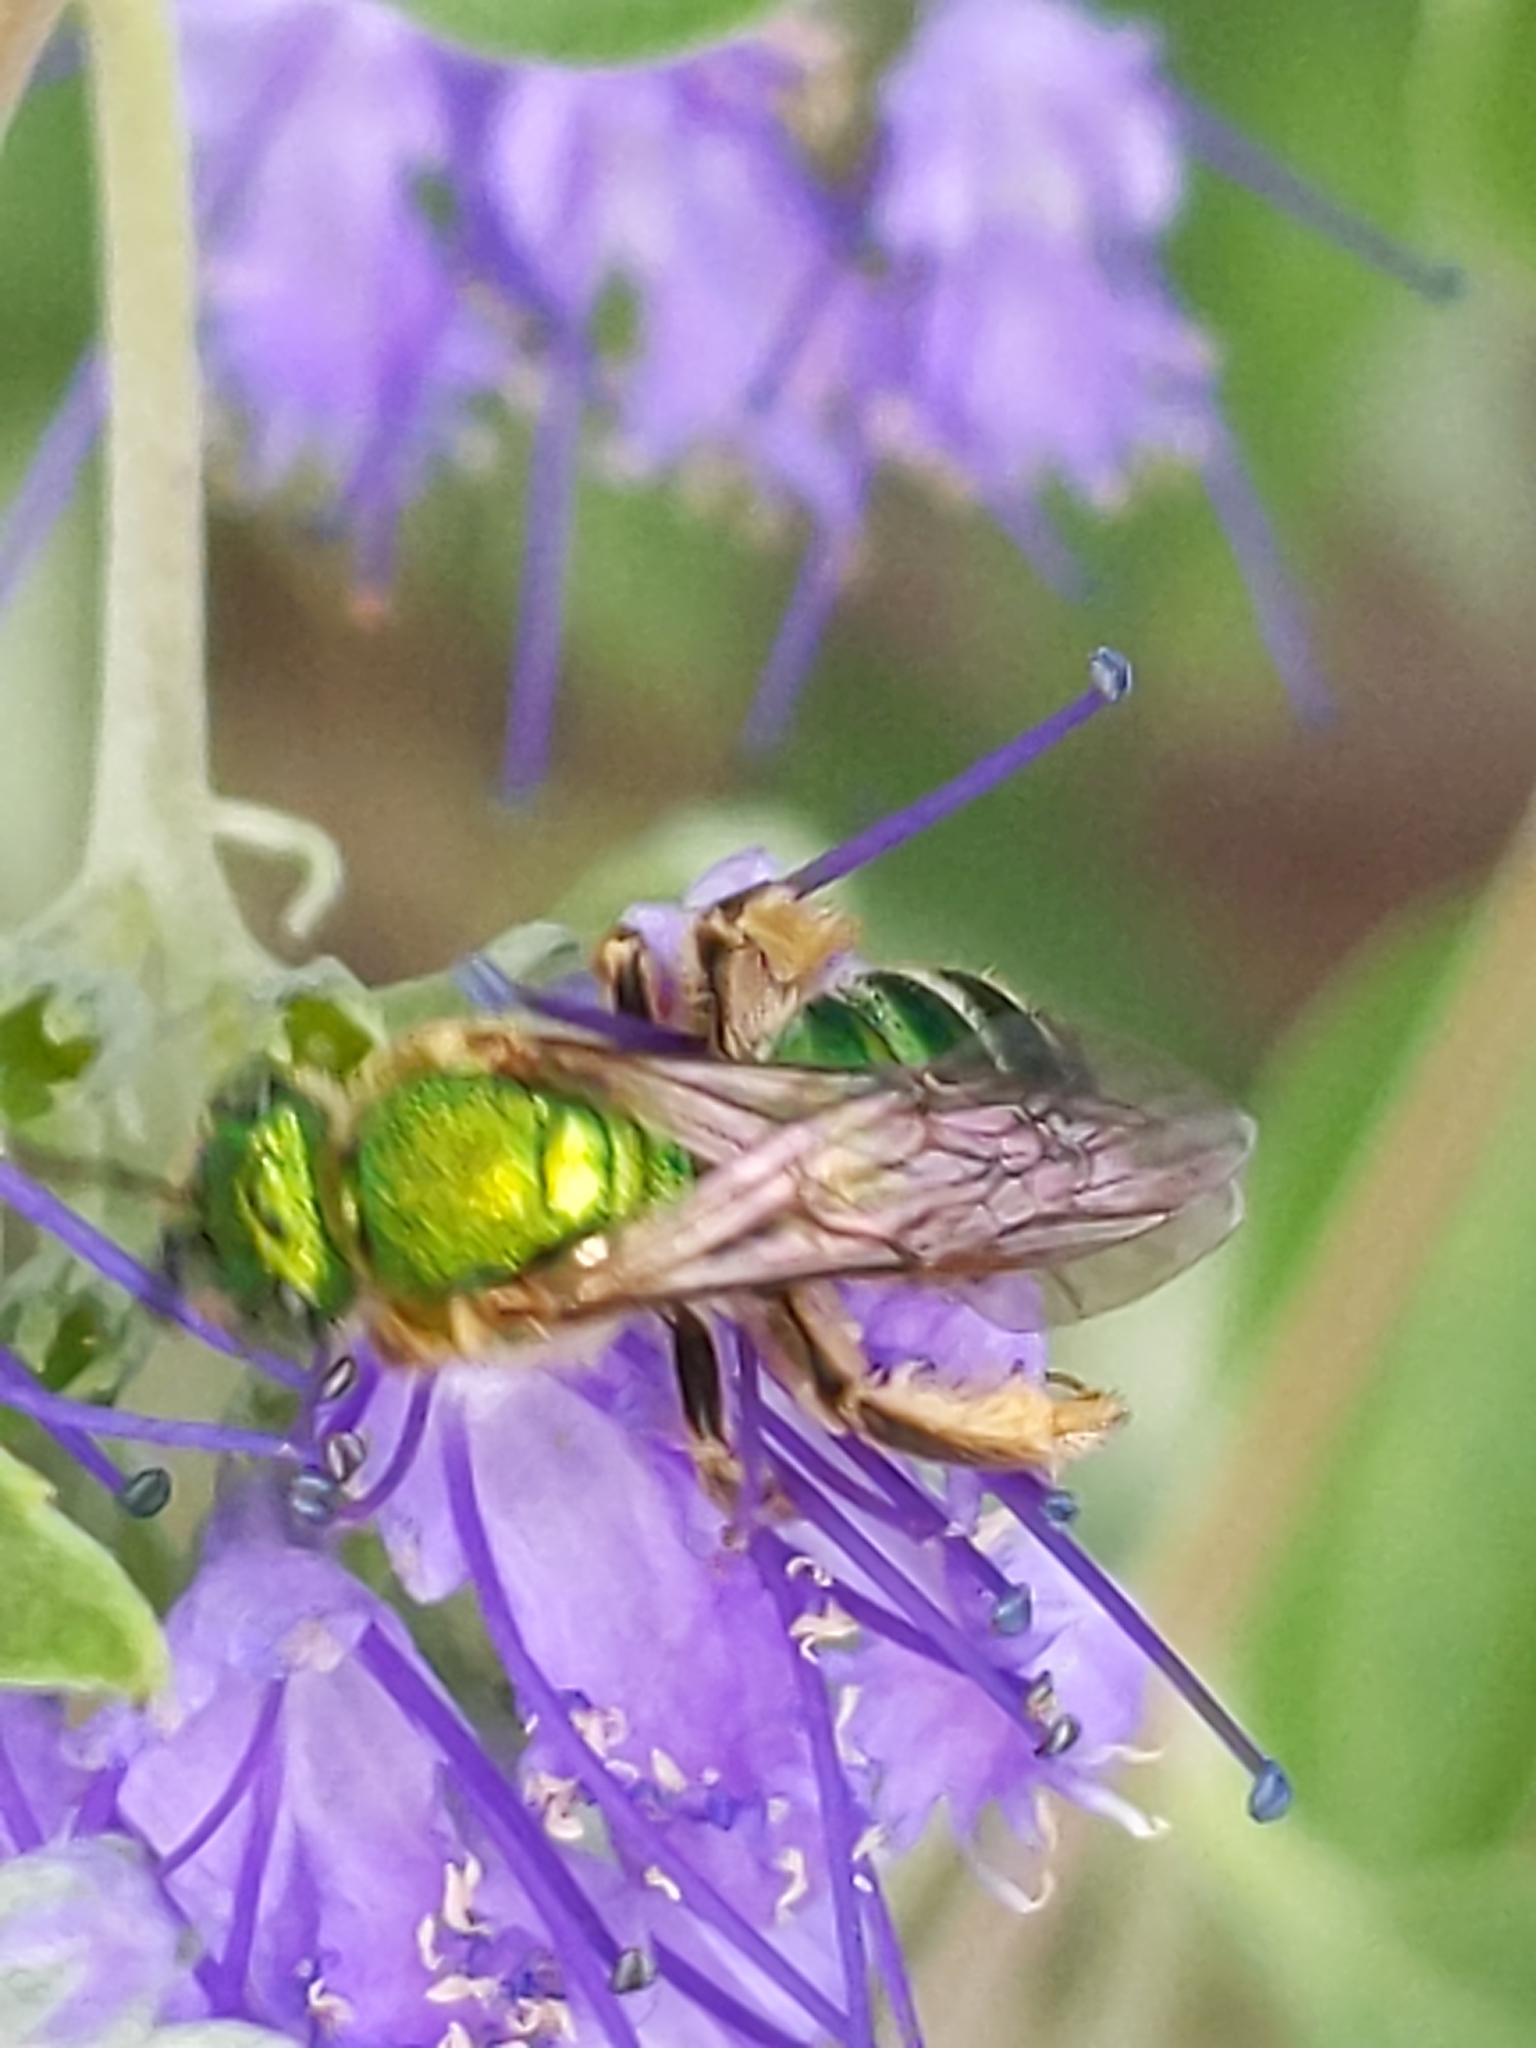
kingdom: Animalia
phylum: Arthropoda
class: Insecta
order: Hymenoptera
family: Halictidae
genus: Agapostemon
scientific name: Agapostemon sericeus
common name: Silky striped sweat bee
